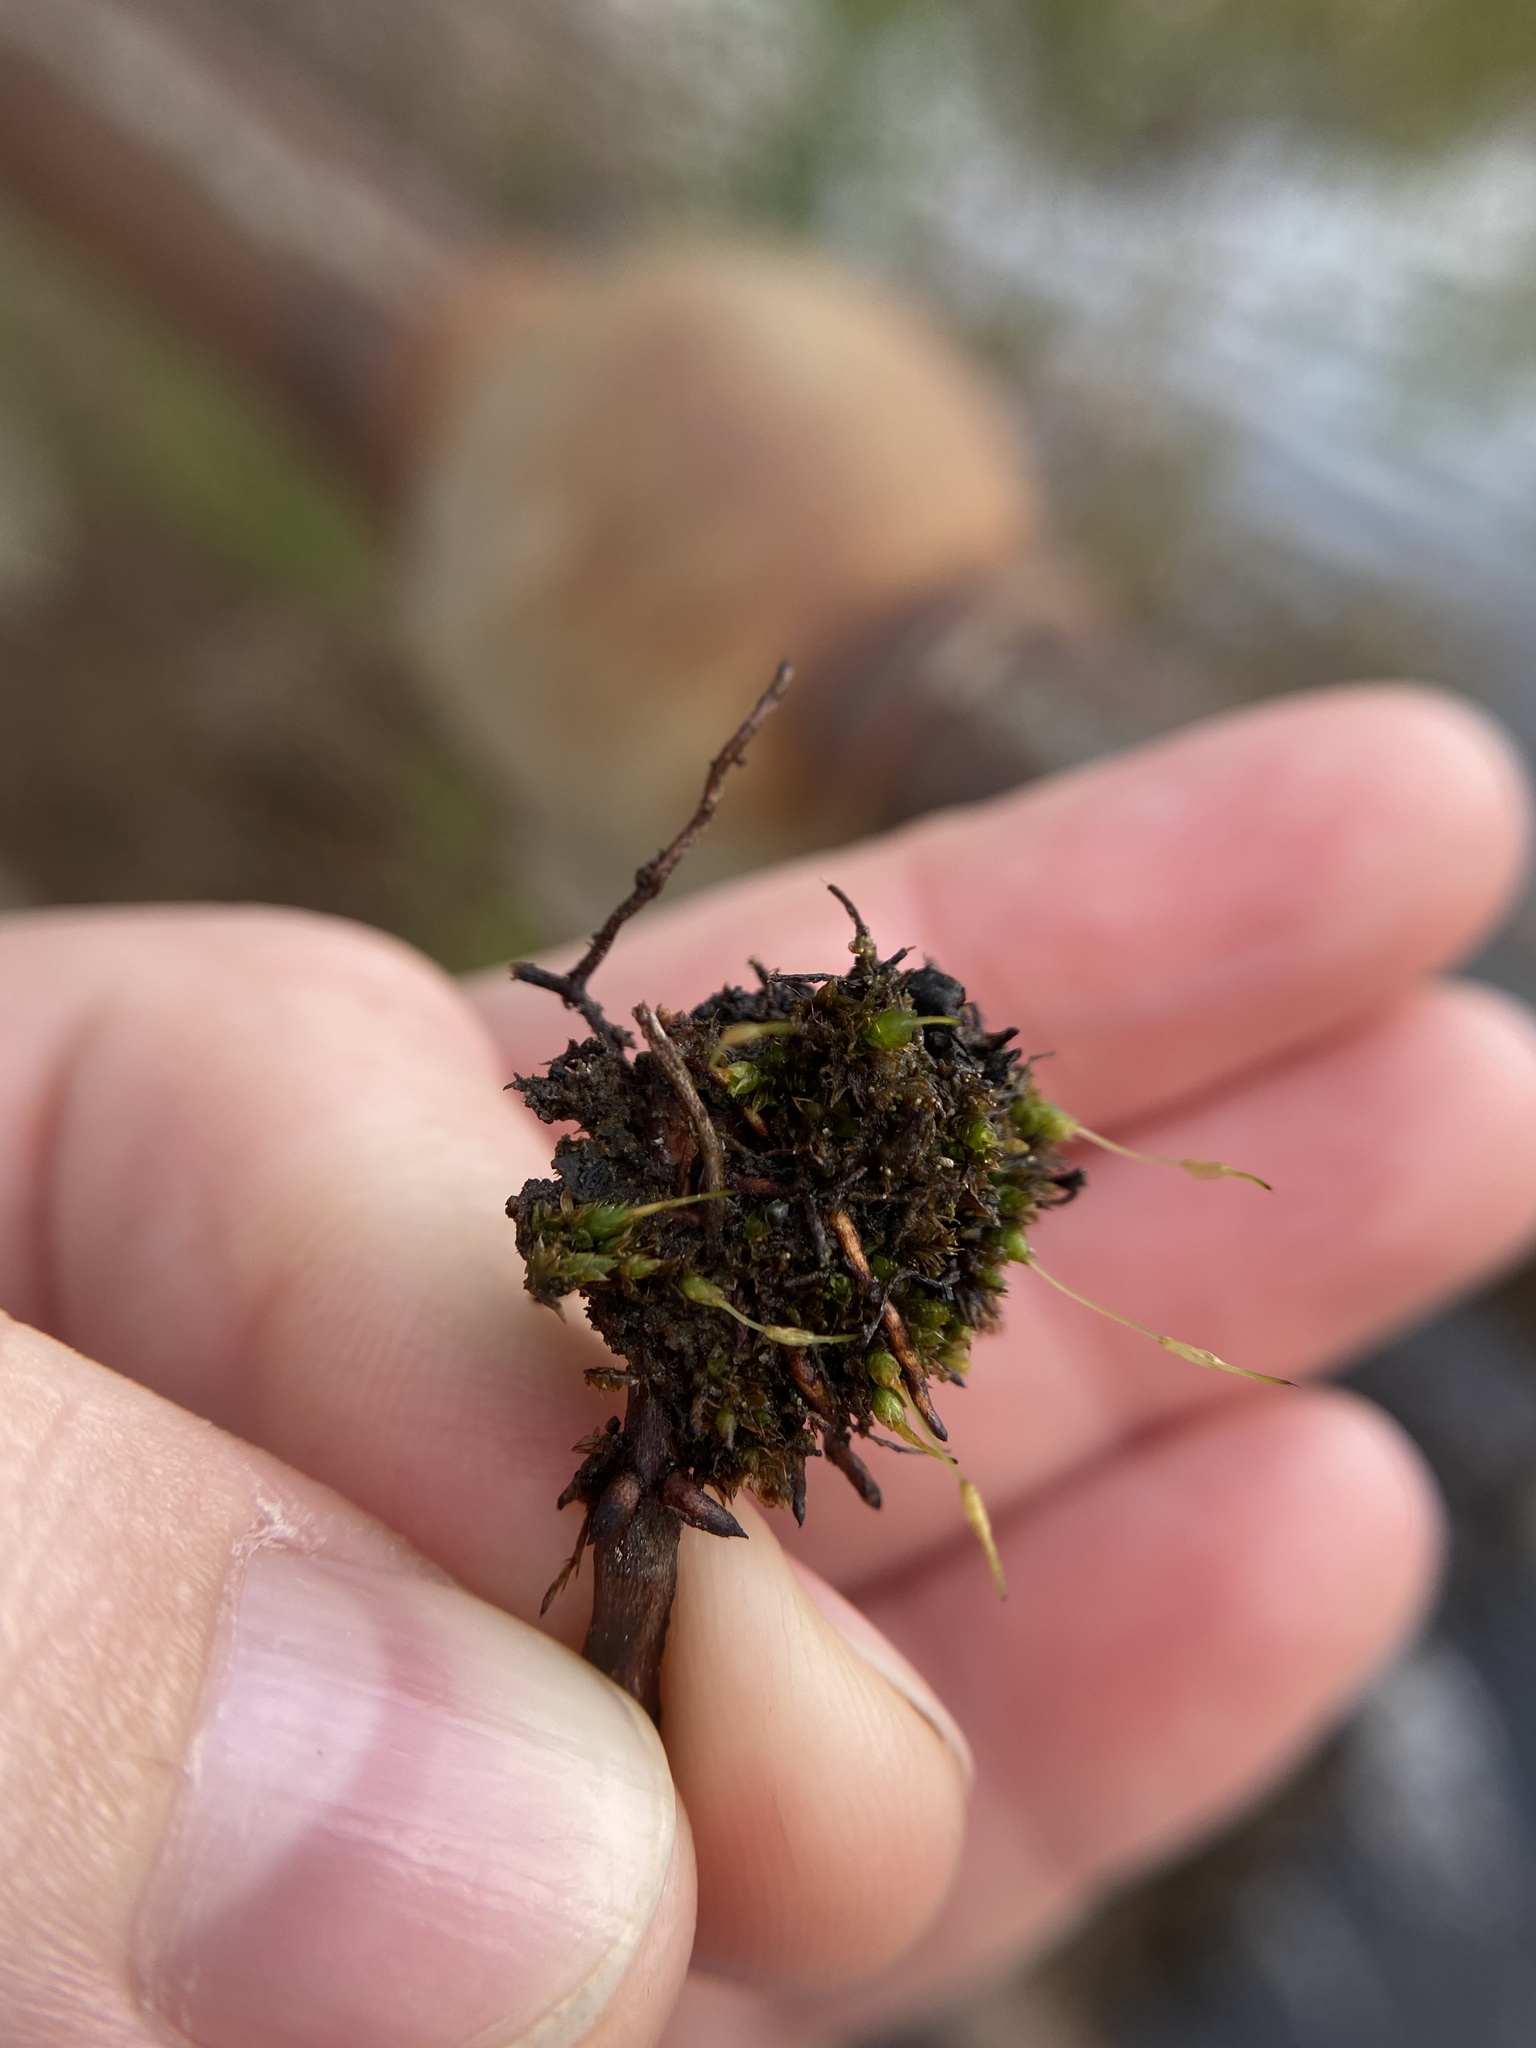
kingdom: Plantae
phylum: Bryophyta
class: Bryopsida
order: Funariales
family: Funariaceae
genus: Funaria
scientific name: Funaria hygrometrica
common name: Common cord moss
